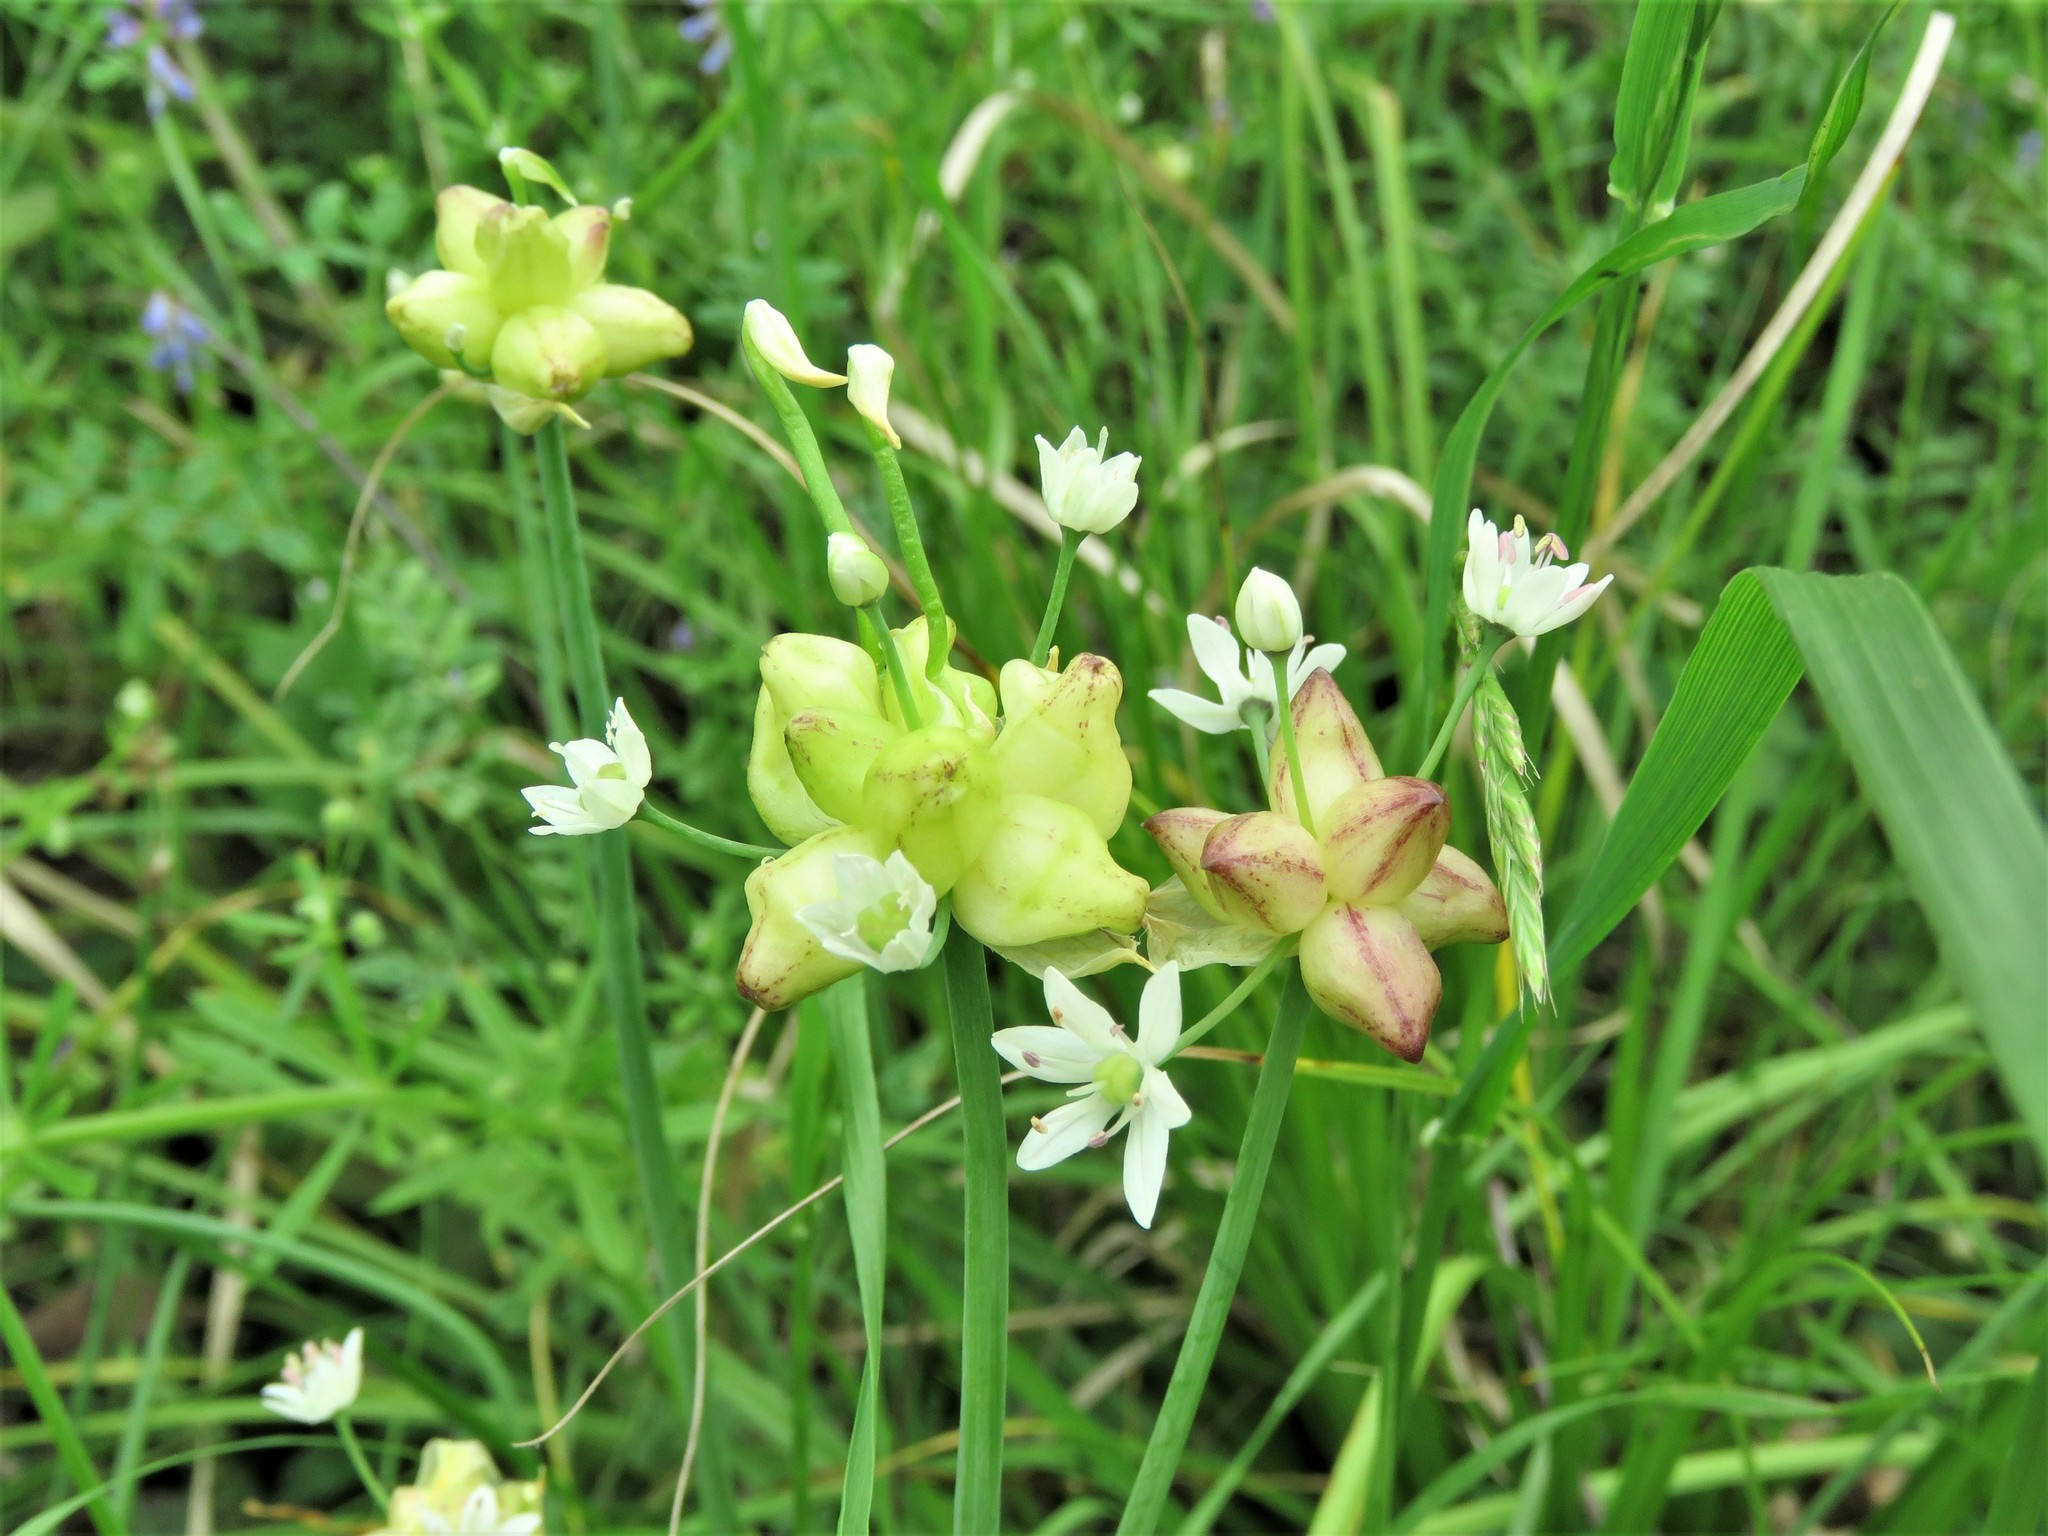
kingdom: Plantae
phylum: Tracheophyta
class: Liliopsida
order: Asparagales
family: Amaryllidaceae
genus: Allium
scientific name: Allium canadense
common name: Meadow garlic
